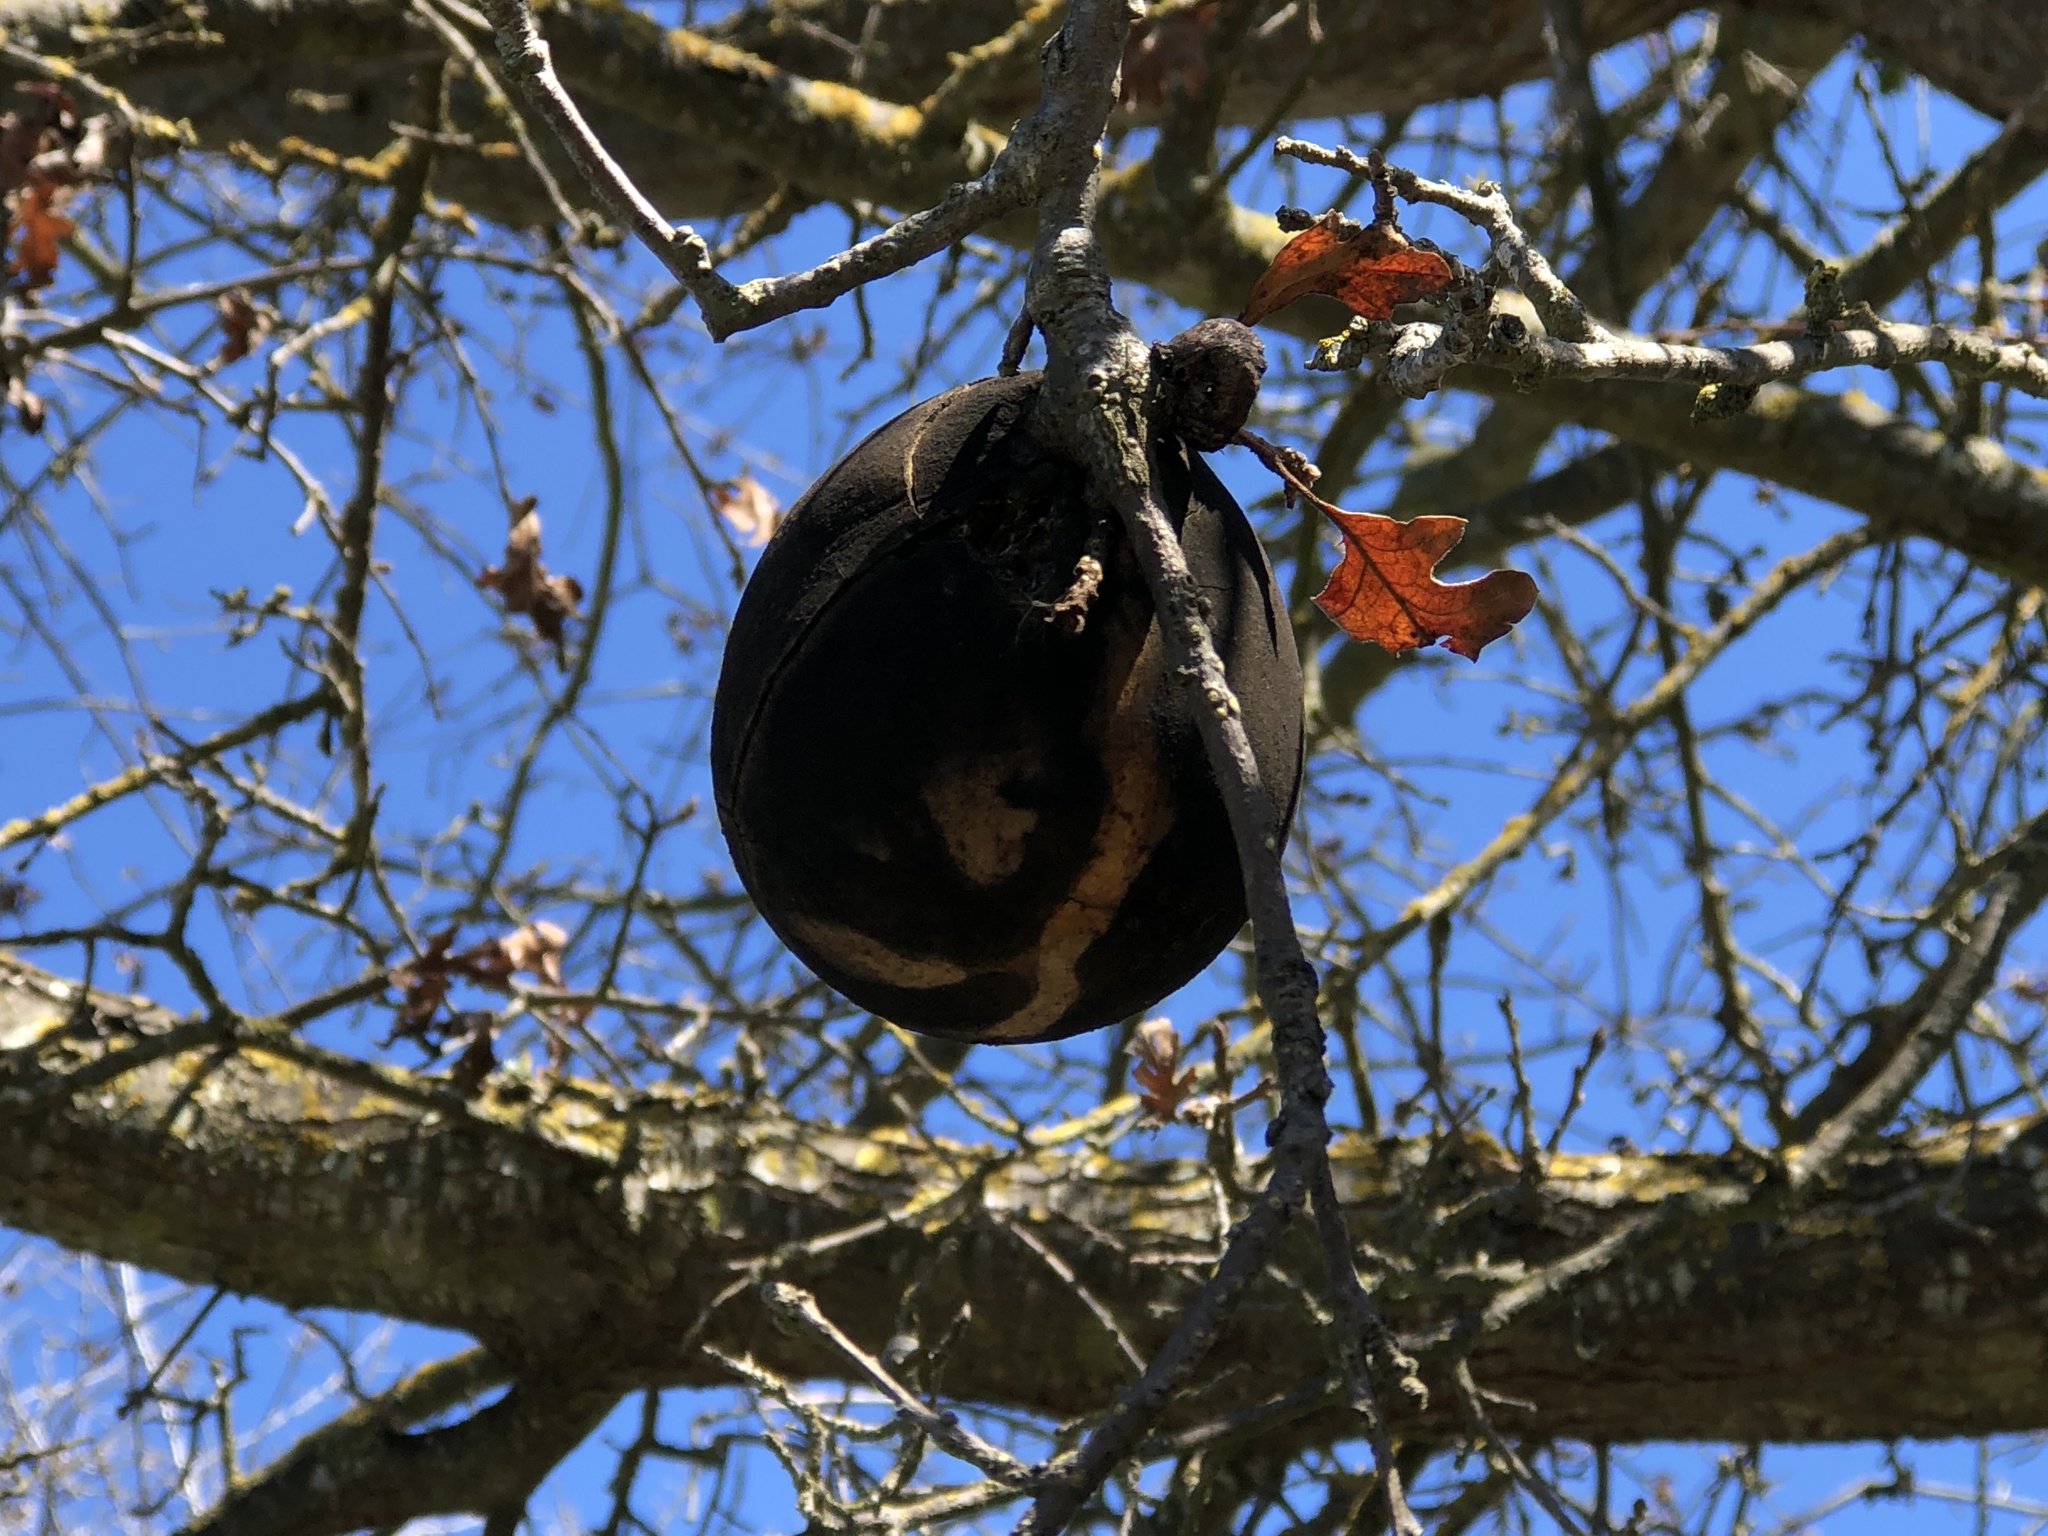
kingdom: Animalia
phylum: Arthropoda
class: Insecta
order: Hymenoptera
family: Cynipidae
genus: Andricus
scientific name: Andricus quercuscalifornicus
